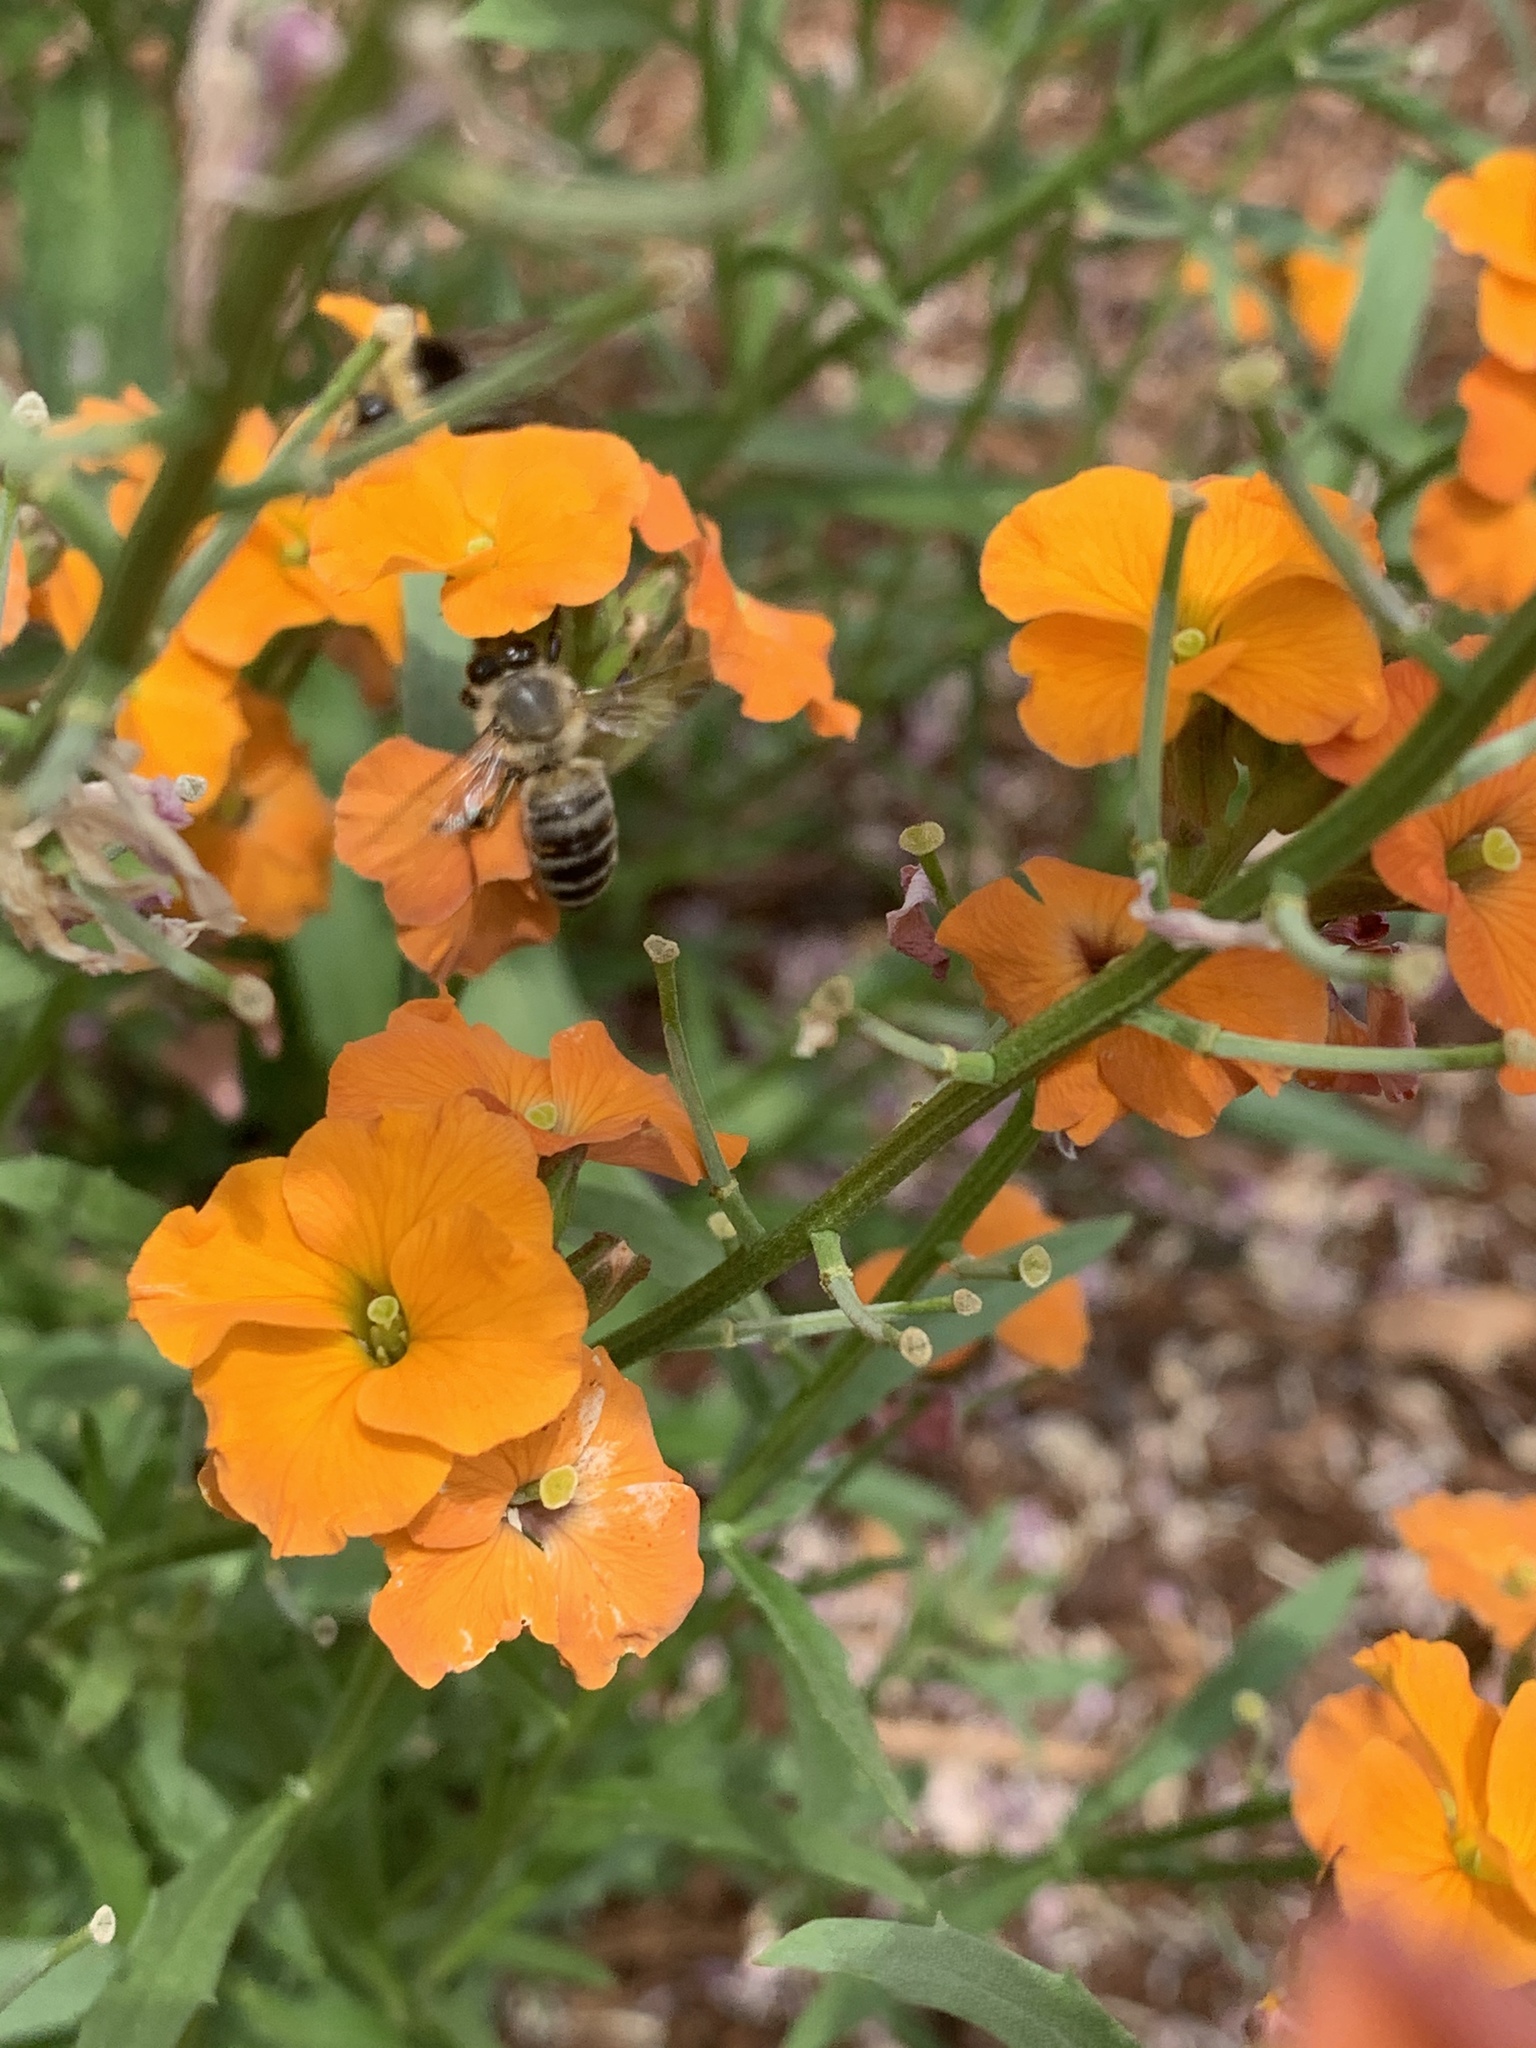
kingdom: Animalia
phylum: Arthropoda
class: Insecta
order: Hymenoptera
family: Apidae
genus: Apis
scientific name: Apis mellifera
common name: Honey bee
